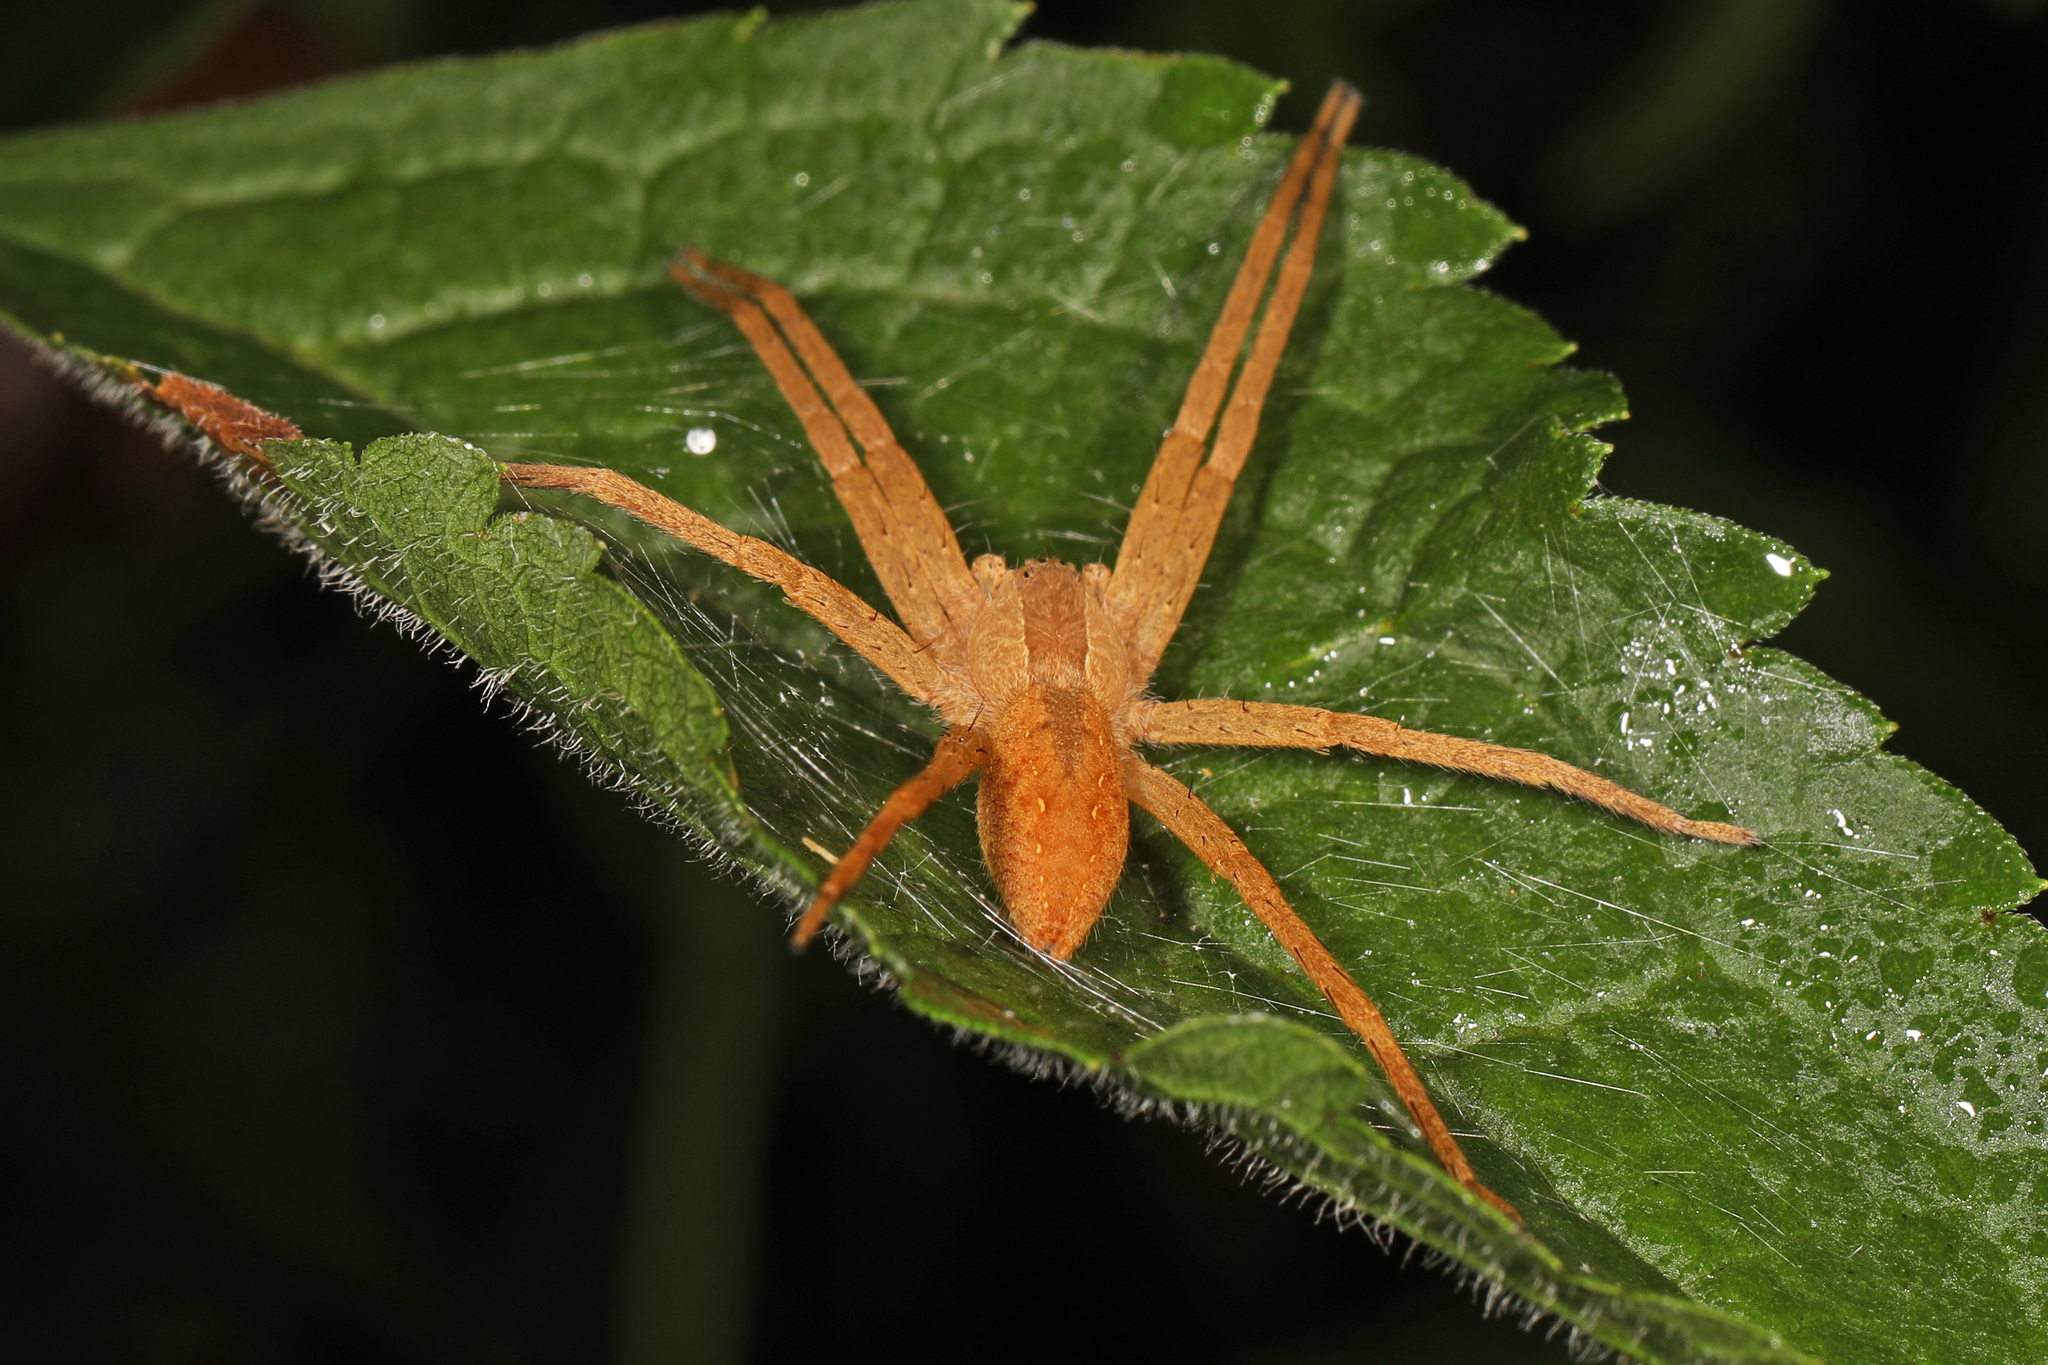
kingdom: Animalia
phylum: Arthropoda
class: Arachnida
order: Araneae
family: Pisauridae
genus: Pisaurina
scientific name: Pisaurina mira
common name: American nursery web spider
